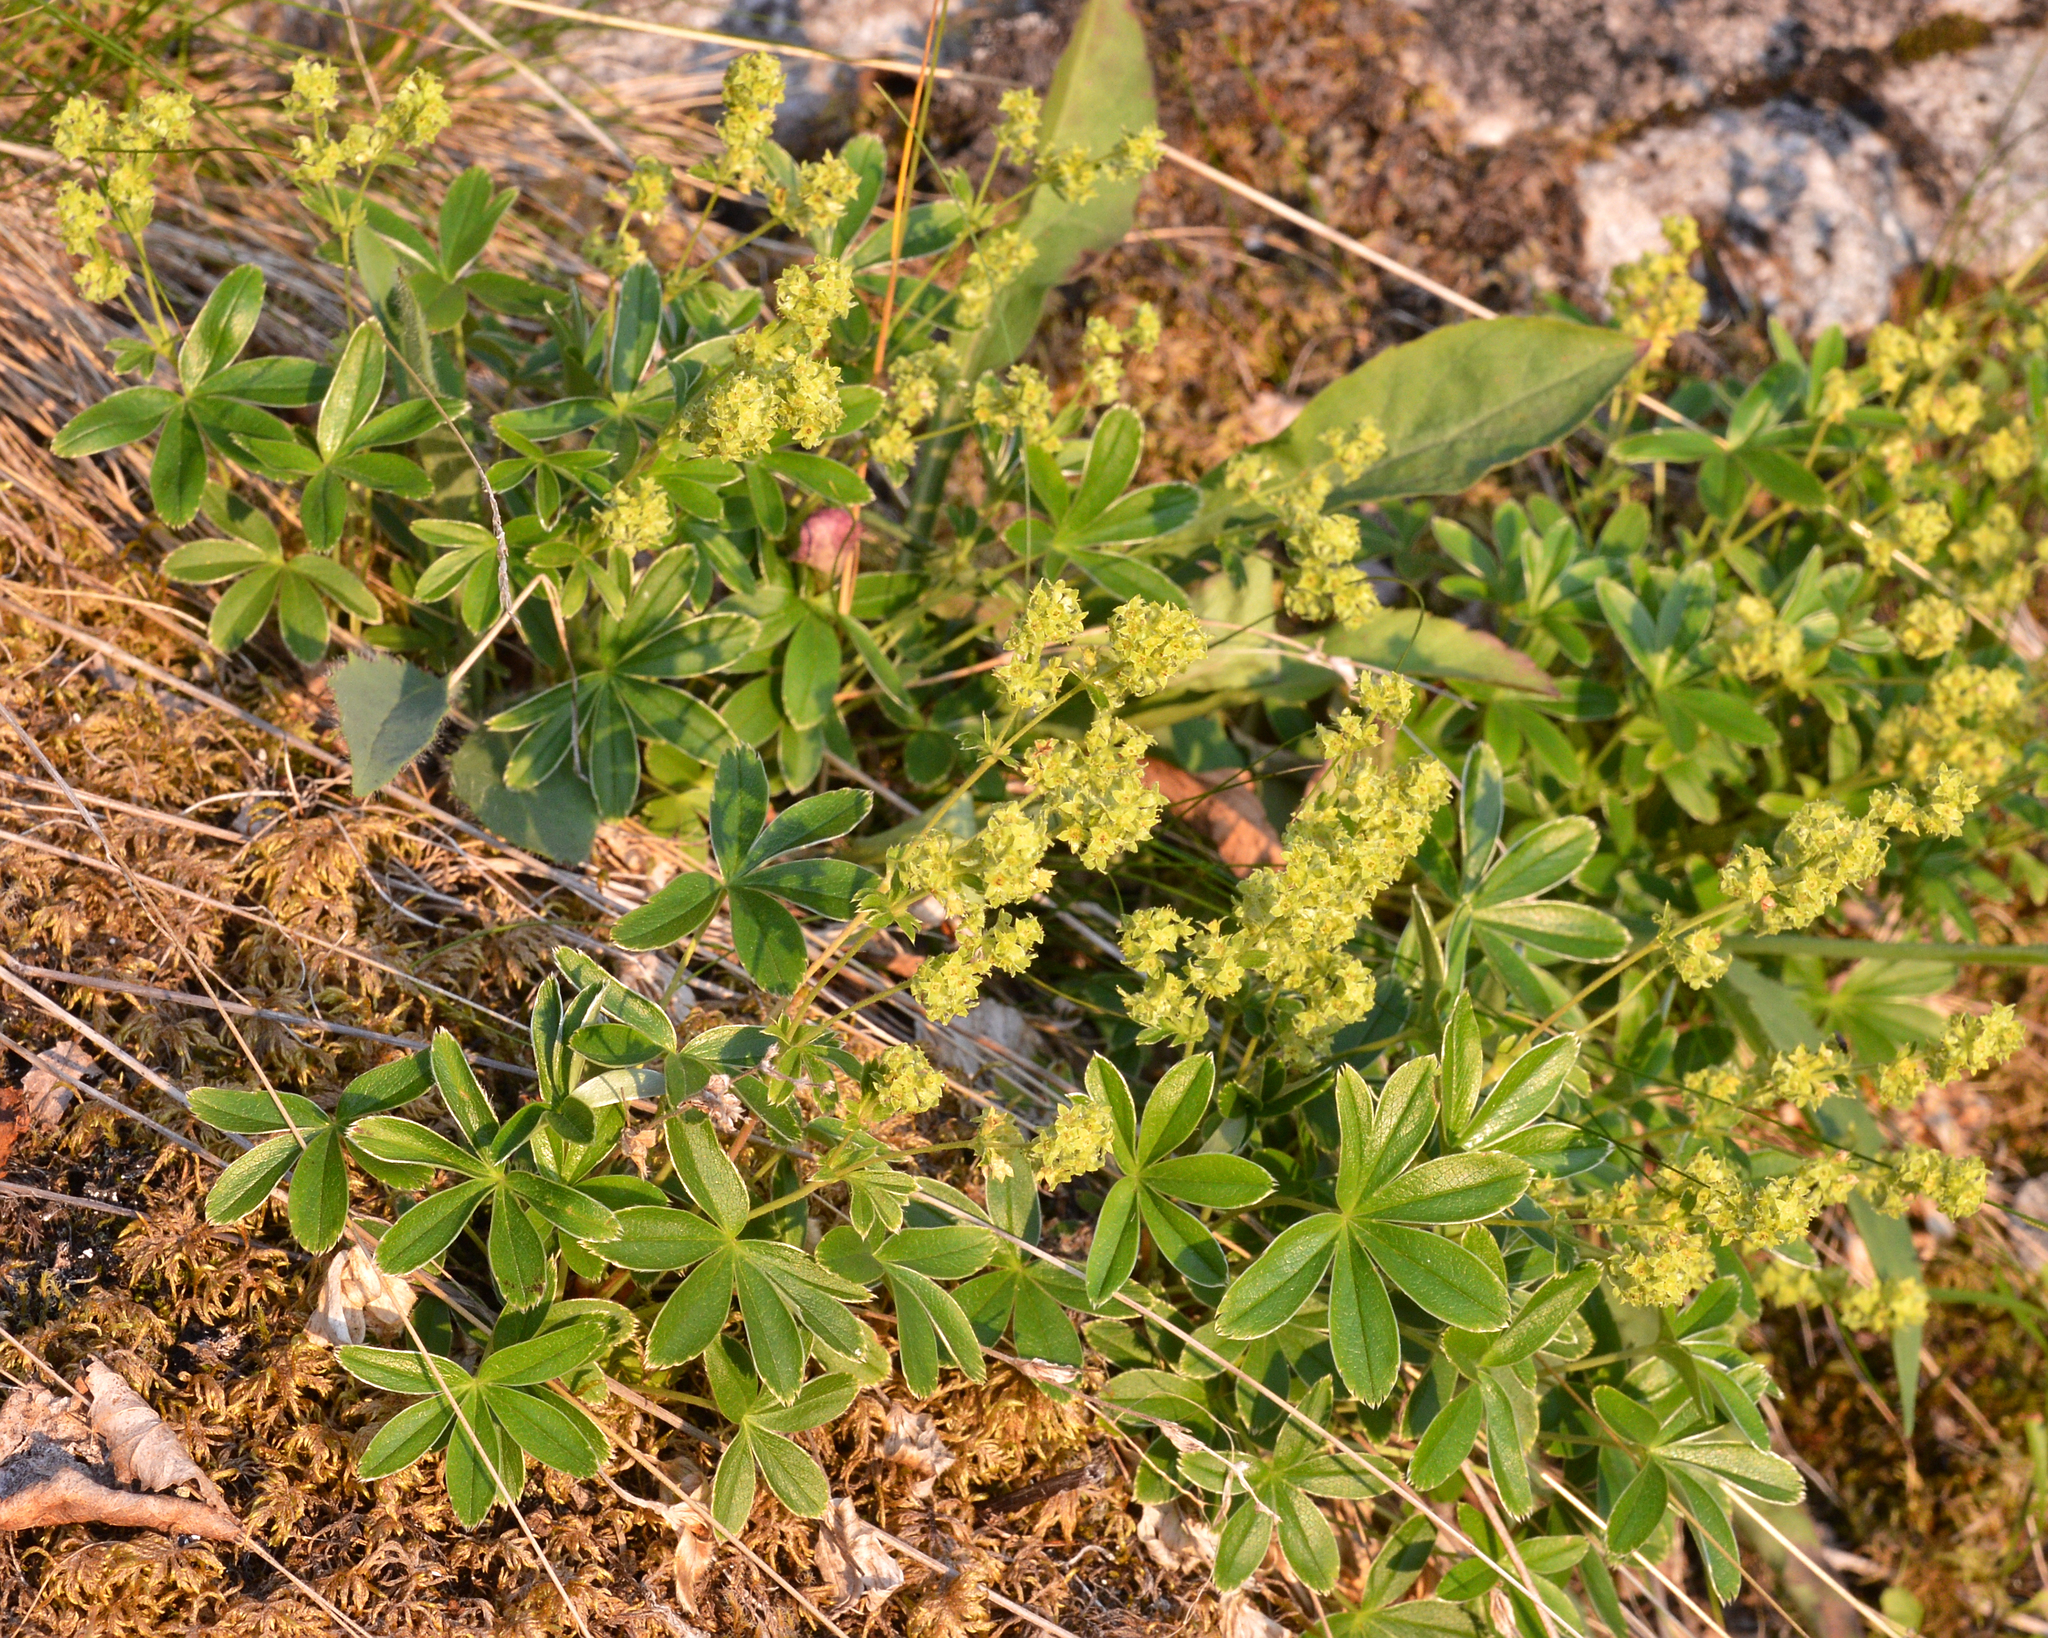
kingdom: Plantae
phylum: Tracheophyta
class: Magnoliopsida
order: Rosales
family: Rosaceae
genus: Alchemilla
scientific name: Alchemilla alpina
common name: Alpine lady's-mantle
